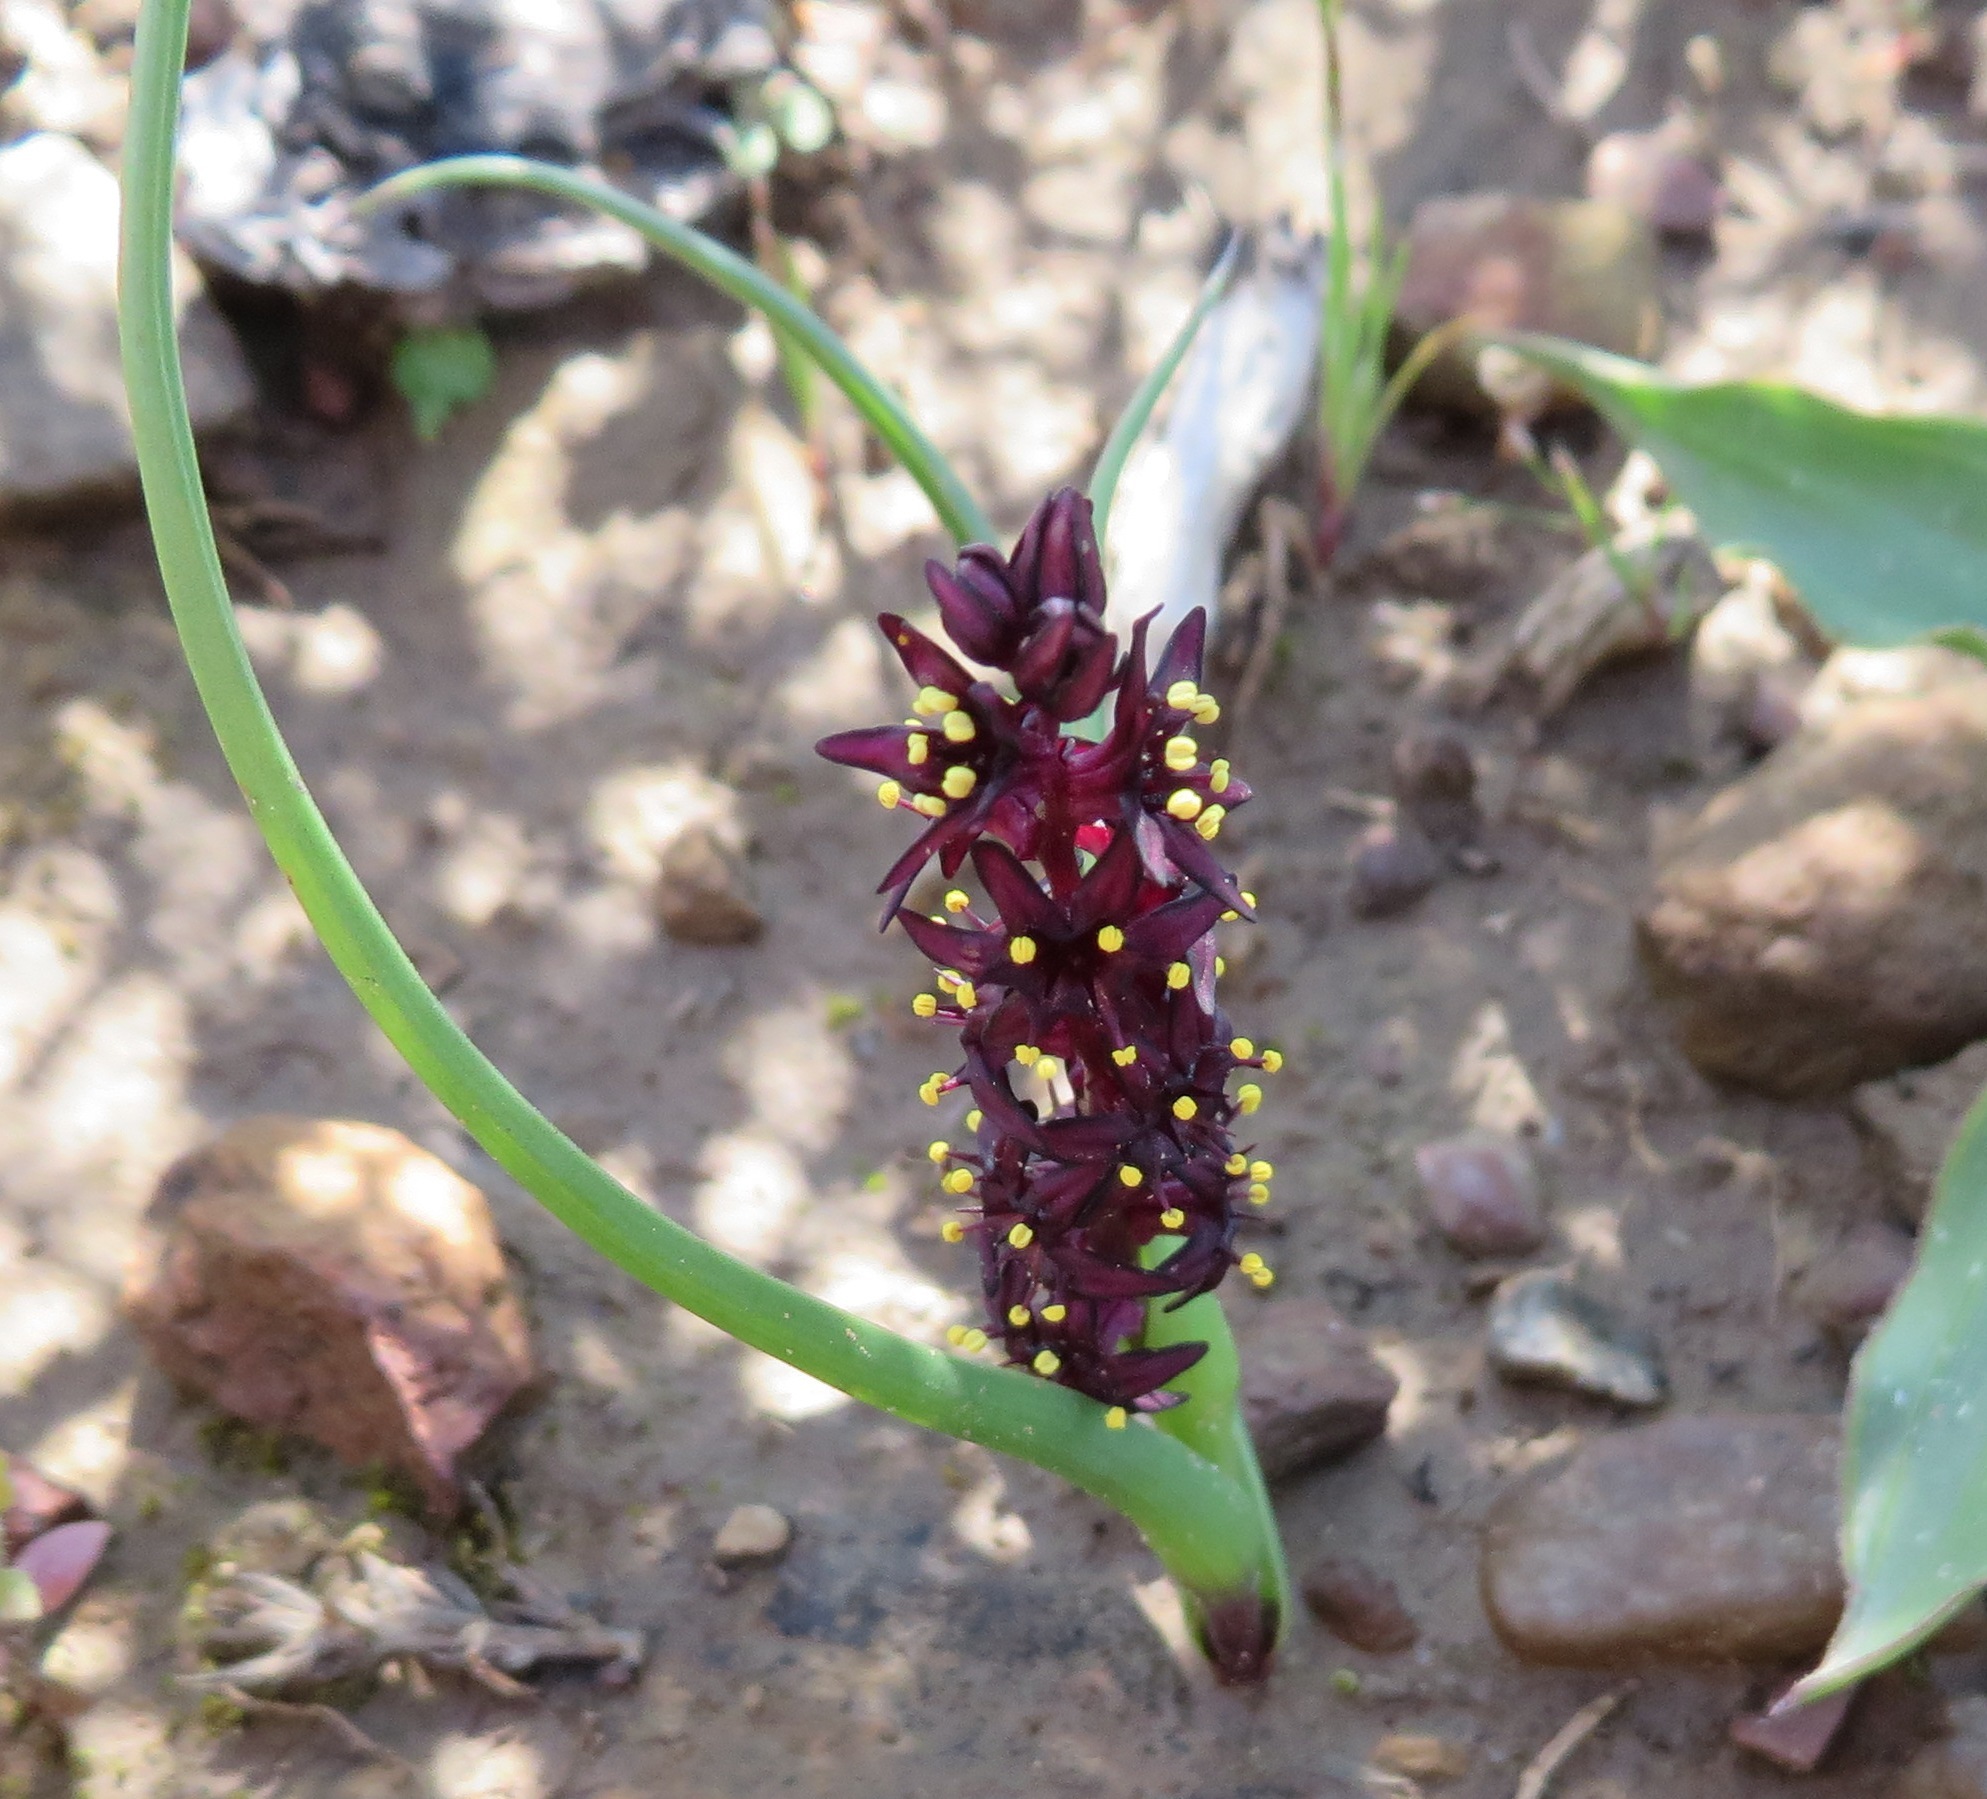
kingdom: Plantae
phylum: Tracheophyta
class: Liliopsida
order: Liliales
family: Colchicaceae
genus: Wurmbea
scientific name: Wurmbea recurva
